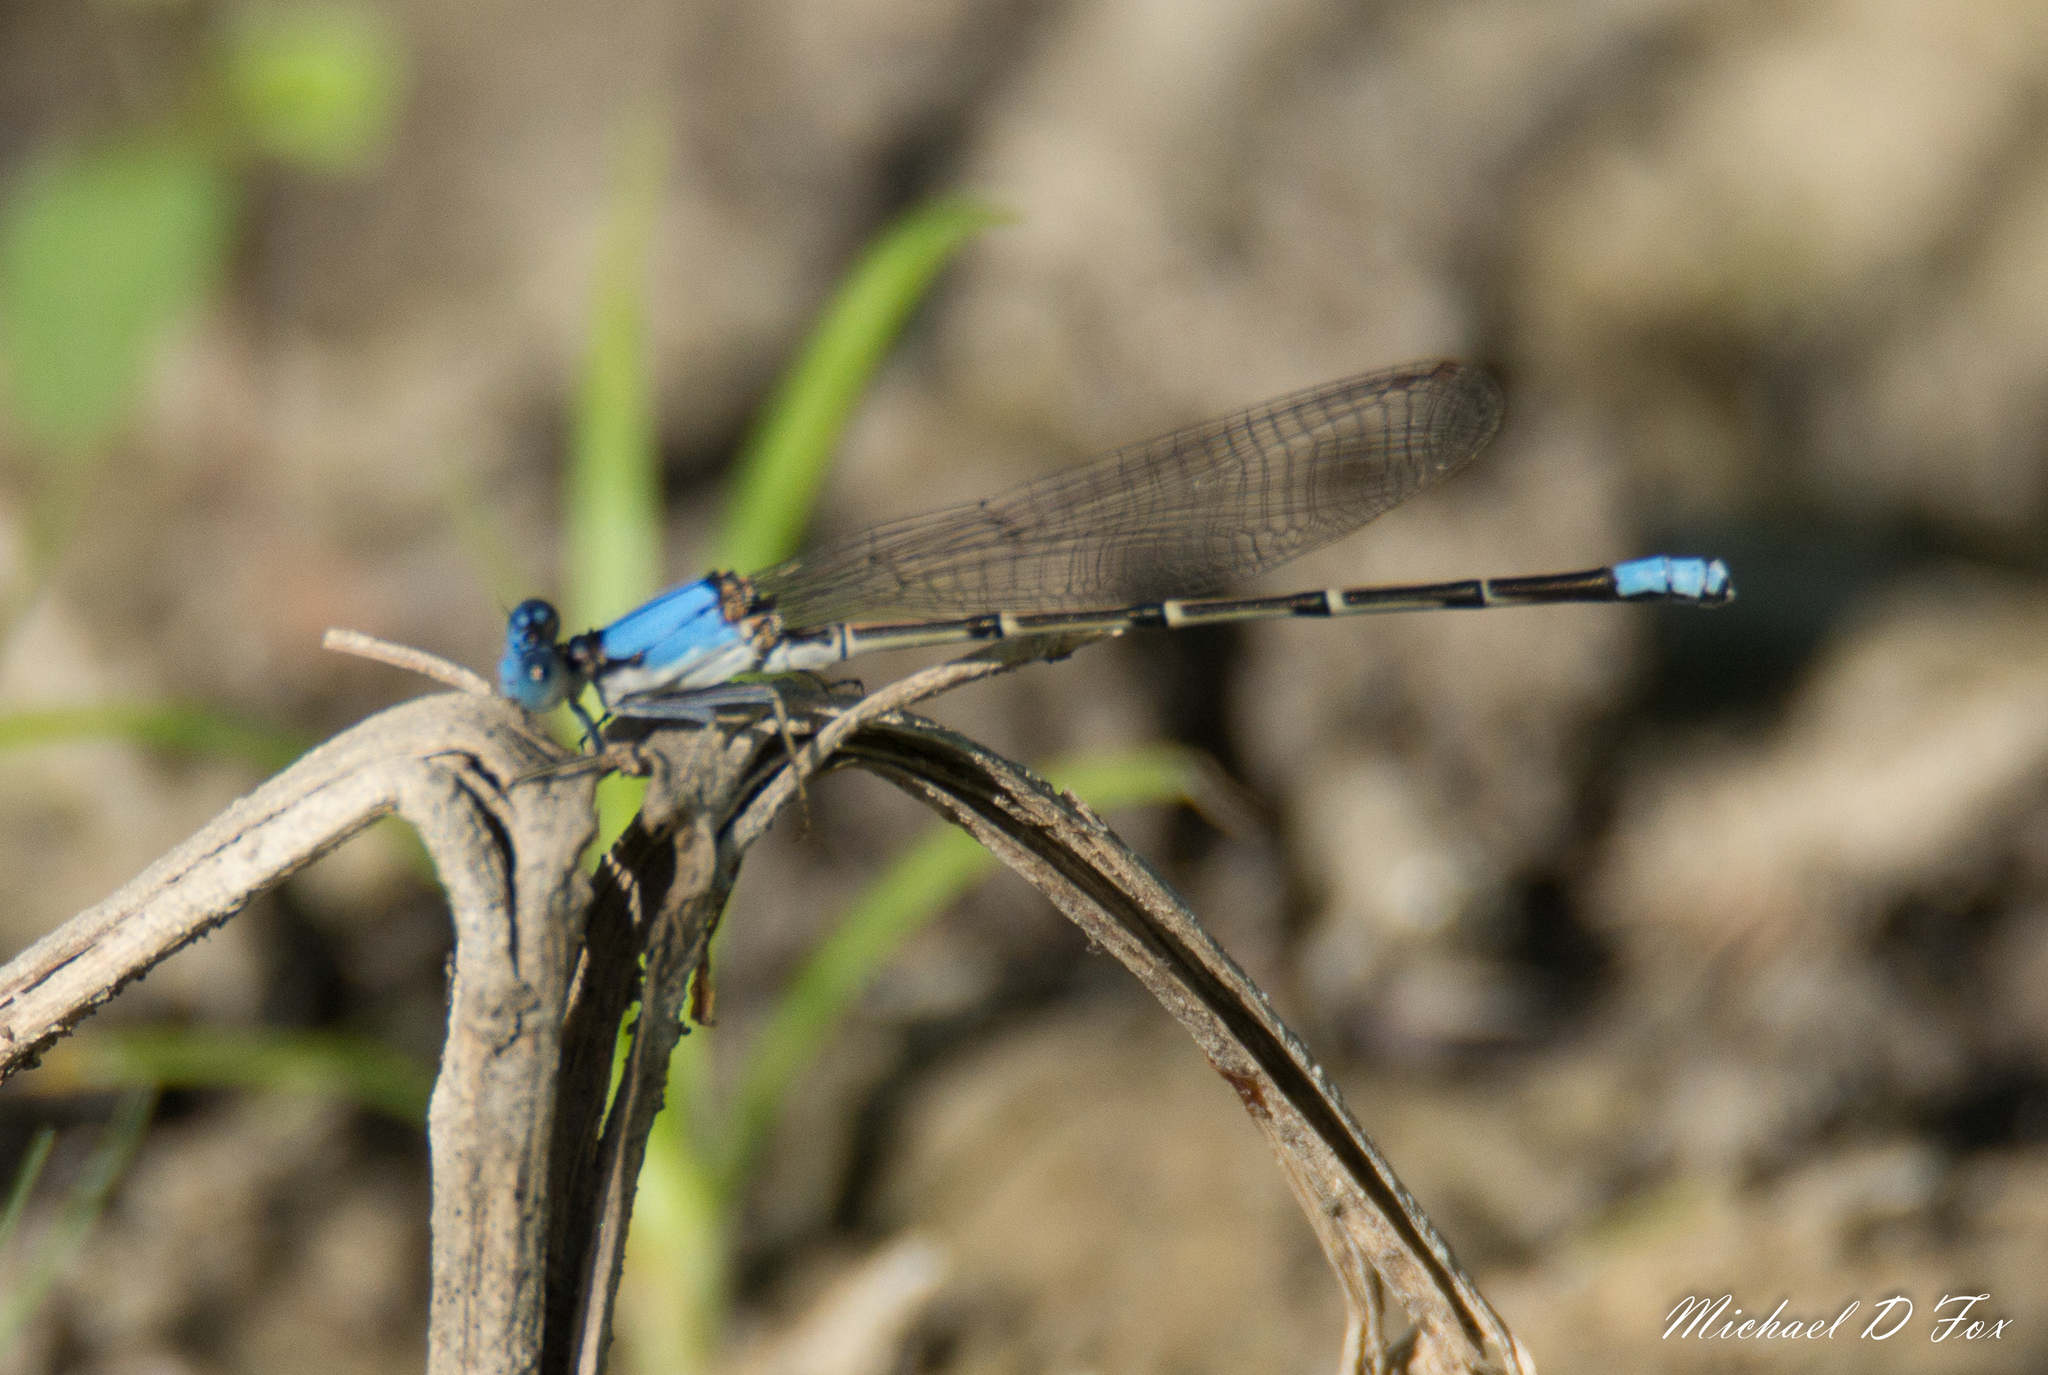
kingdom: Animalia
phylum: Arthropoda
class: Insecta
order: Odonata
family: Coenagrionidae
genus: Argia
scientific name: Argia apicalis
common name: Blue-fronted dancer
